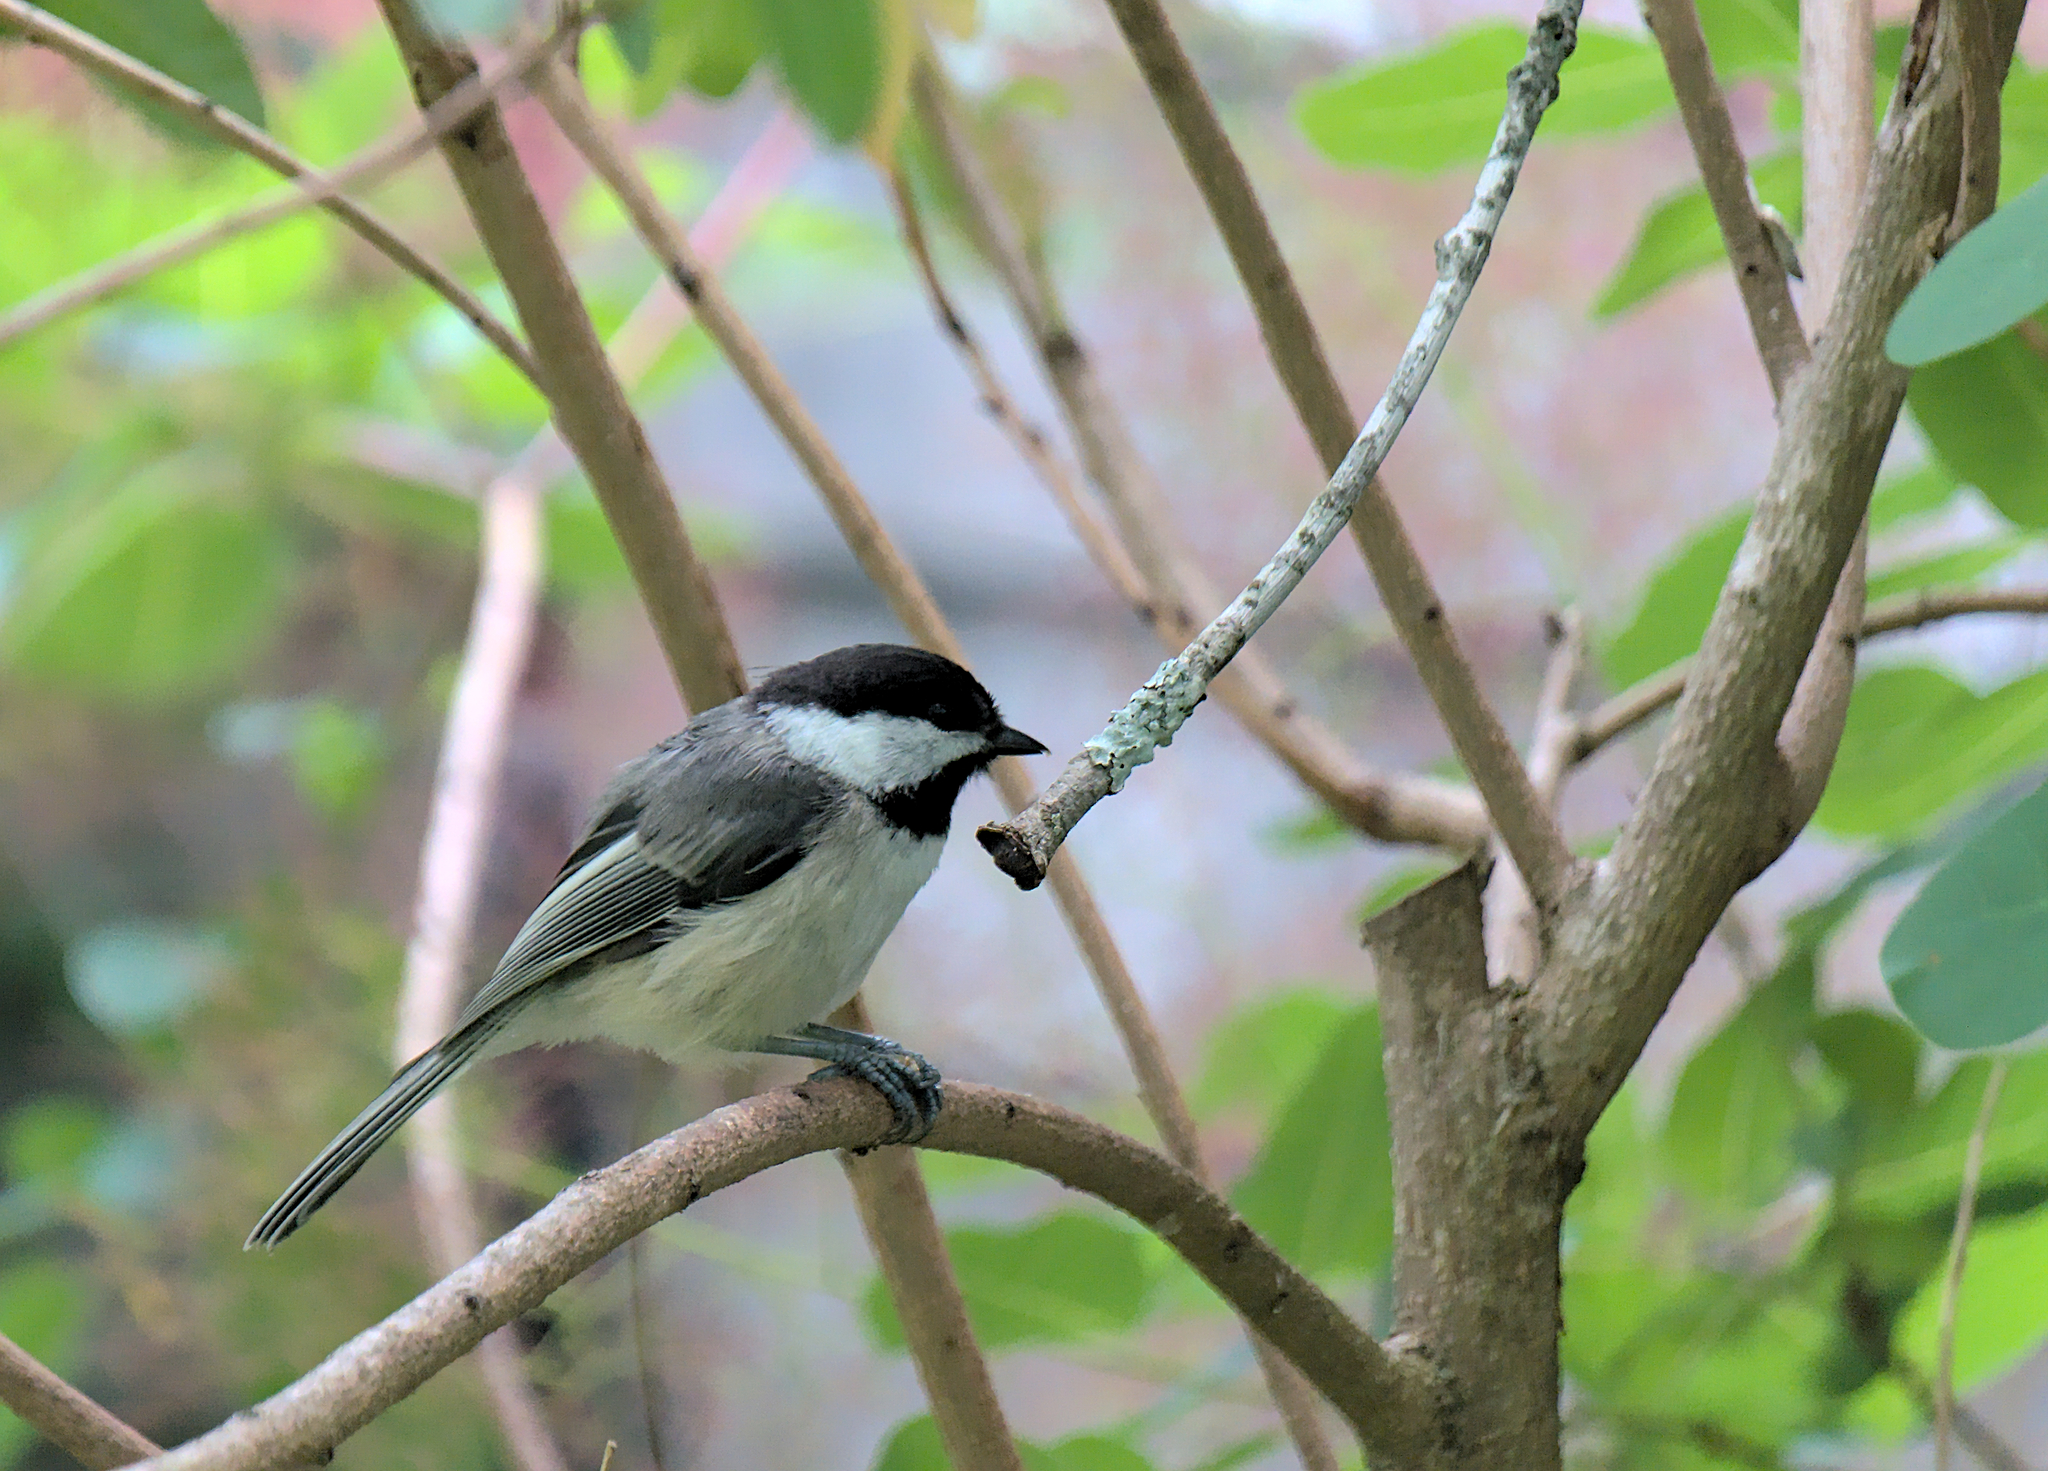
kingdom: Animalia
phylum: Chordata
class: Aves
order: Passeriformes
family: Paridae
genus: Poecile
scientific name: Poecile atricapillus
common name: Black-capped chickadee
